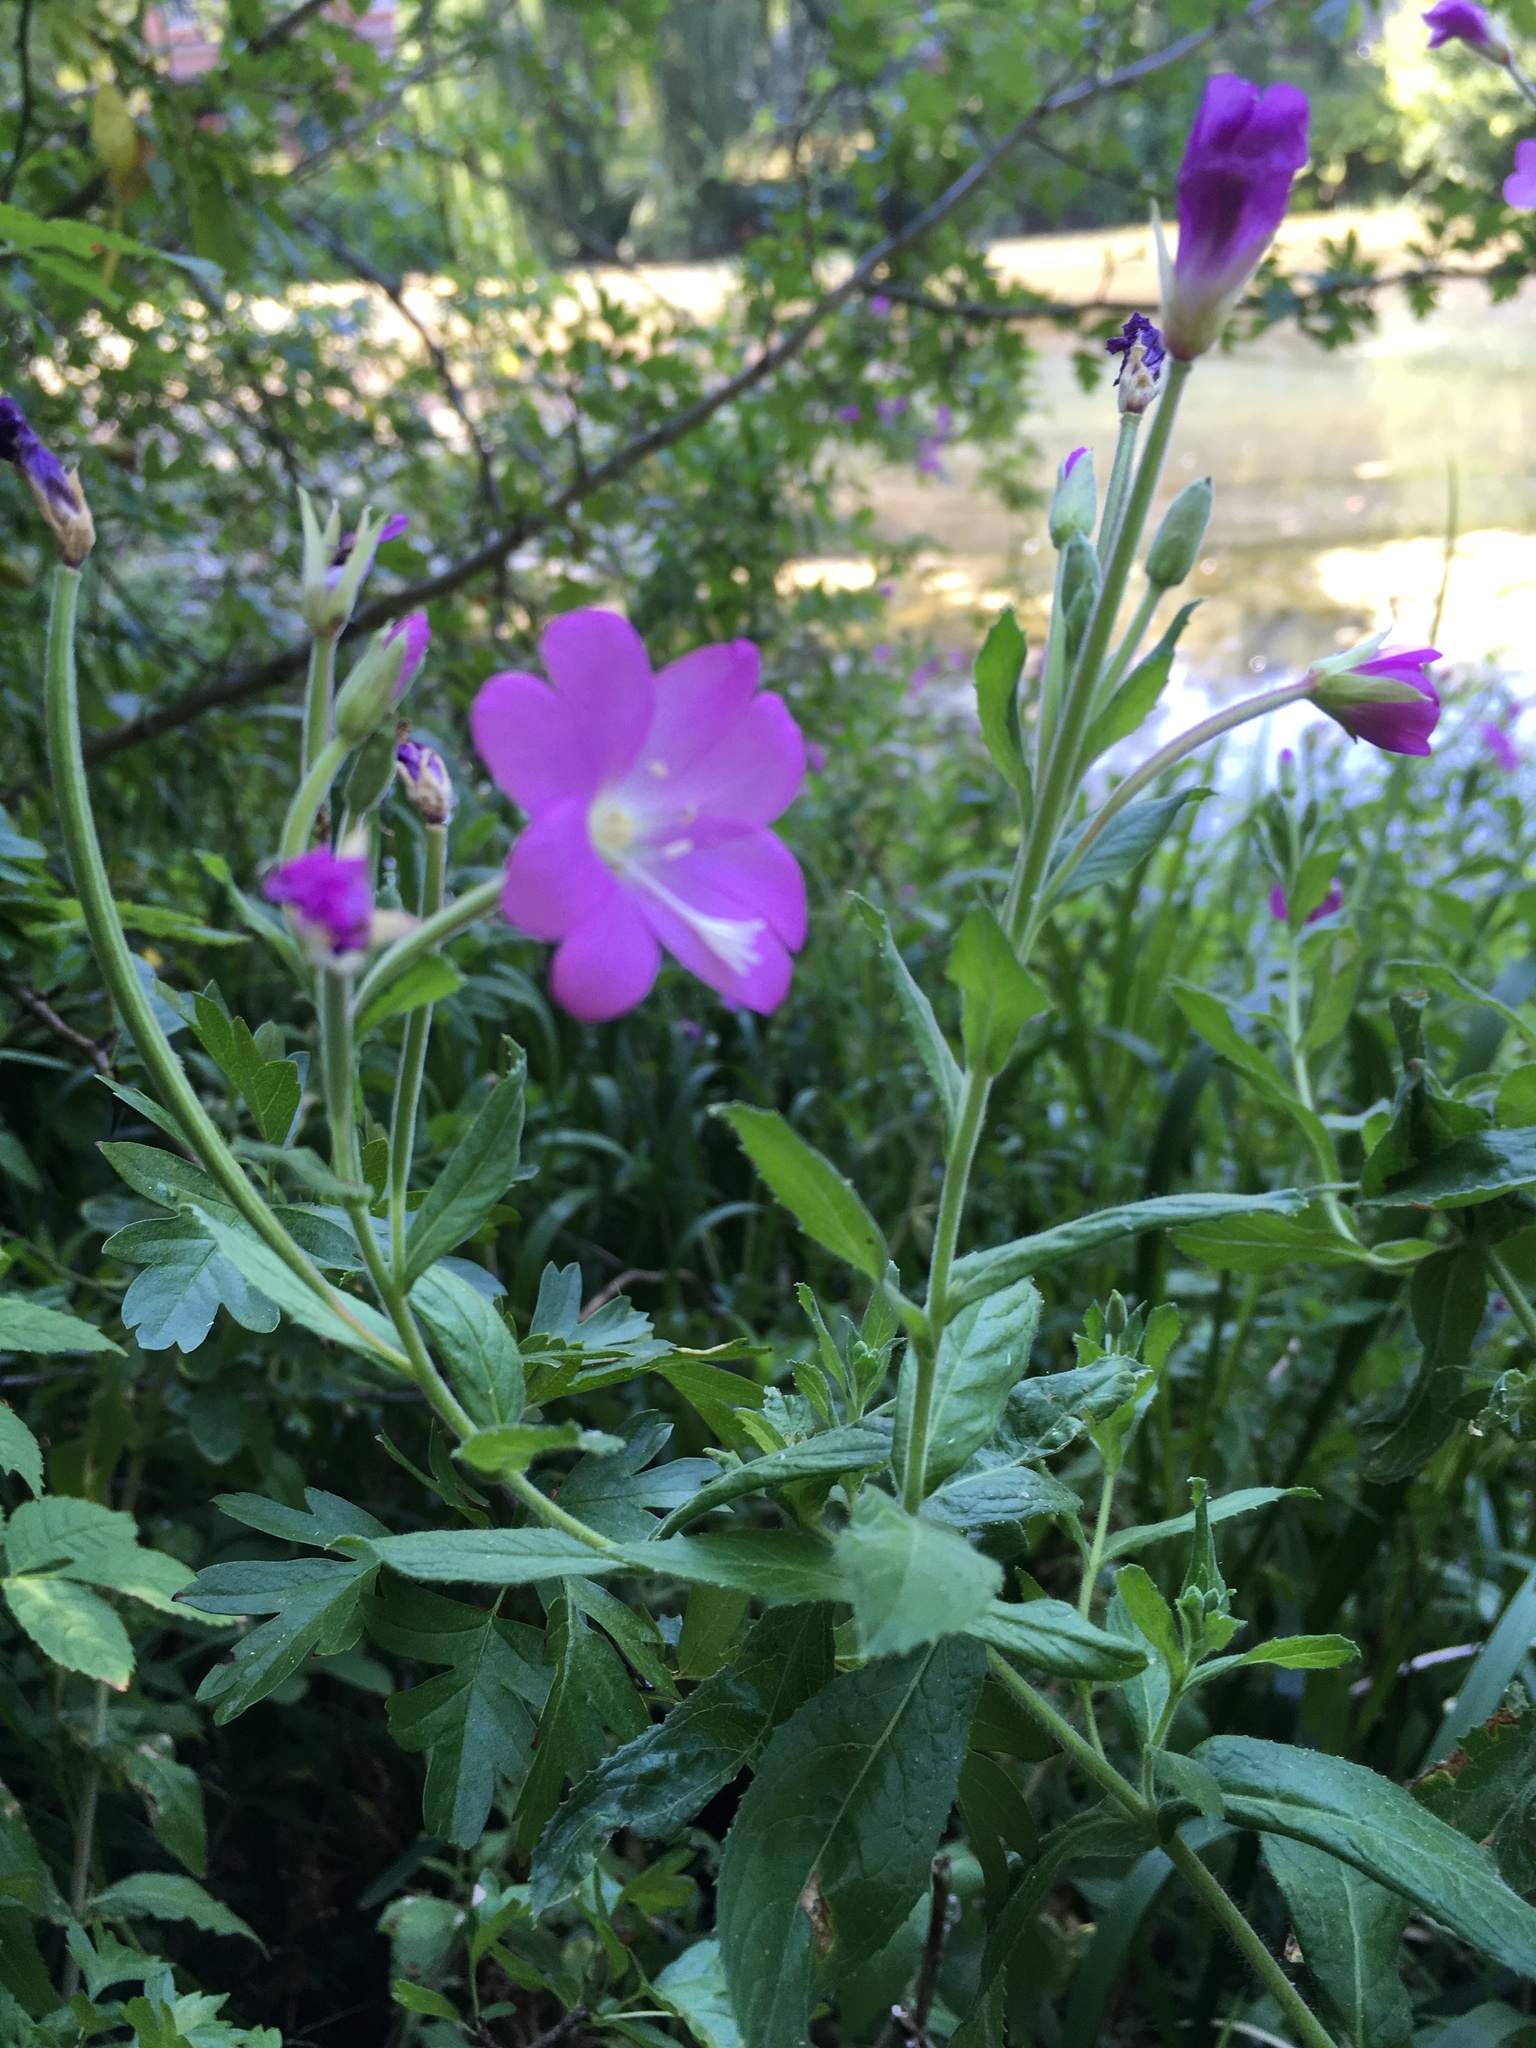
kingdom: Plantae
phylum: Tracheophyta
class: Magnoliopsida
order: Myrtales
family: Onagraceae
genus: Epilobium
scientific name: Epilobium hirsutum
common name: Great willowherb
